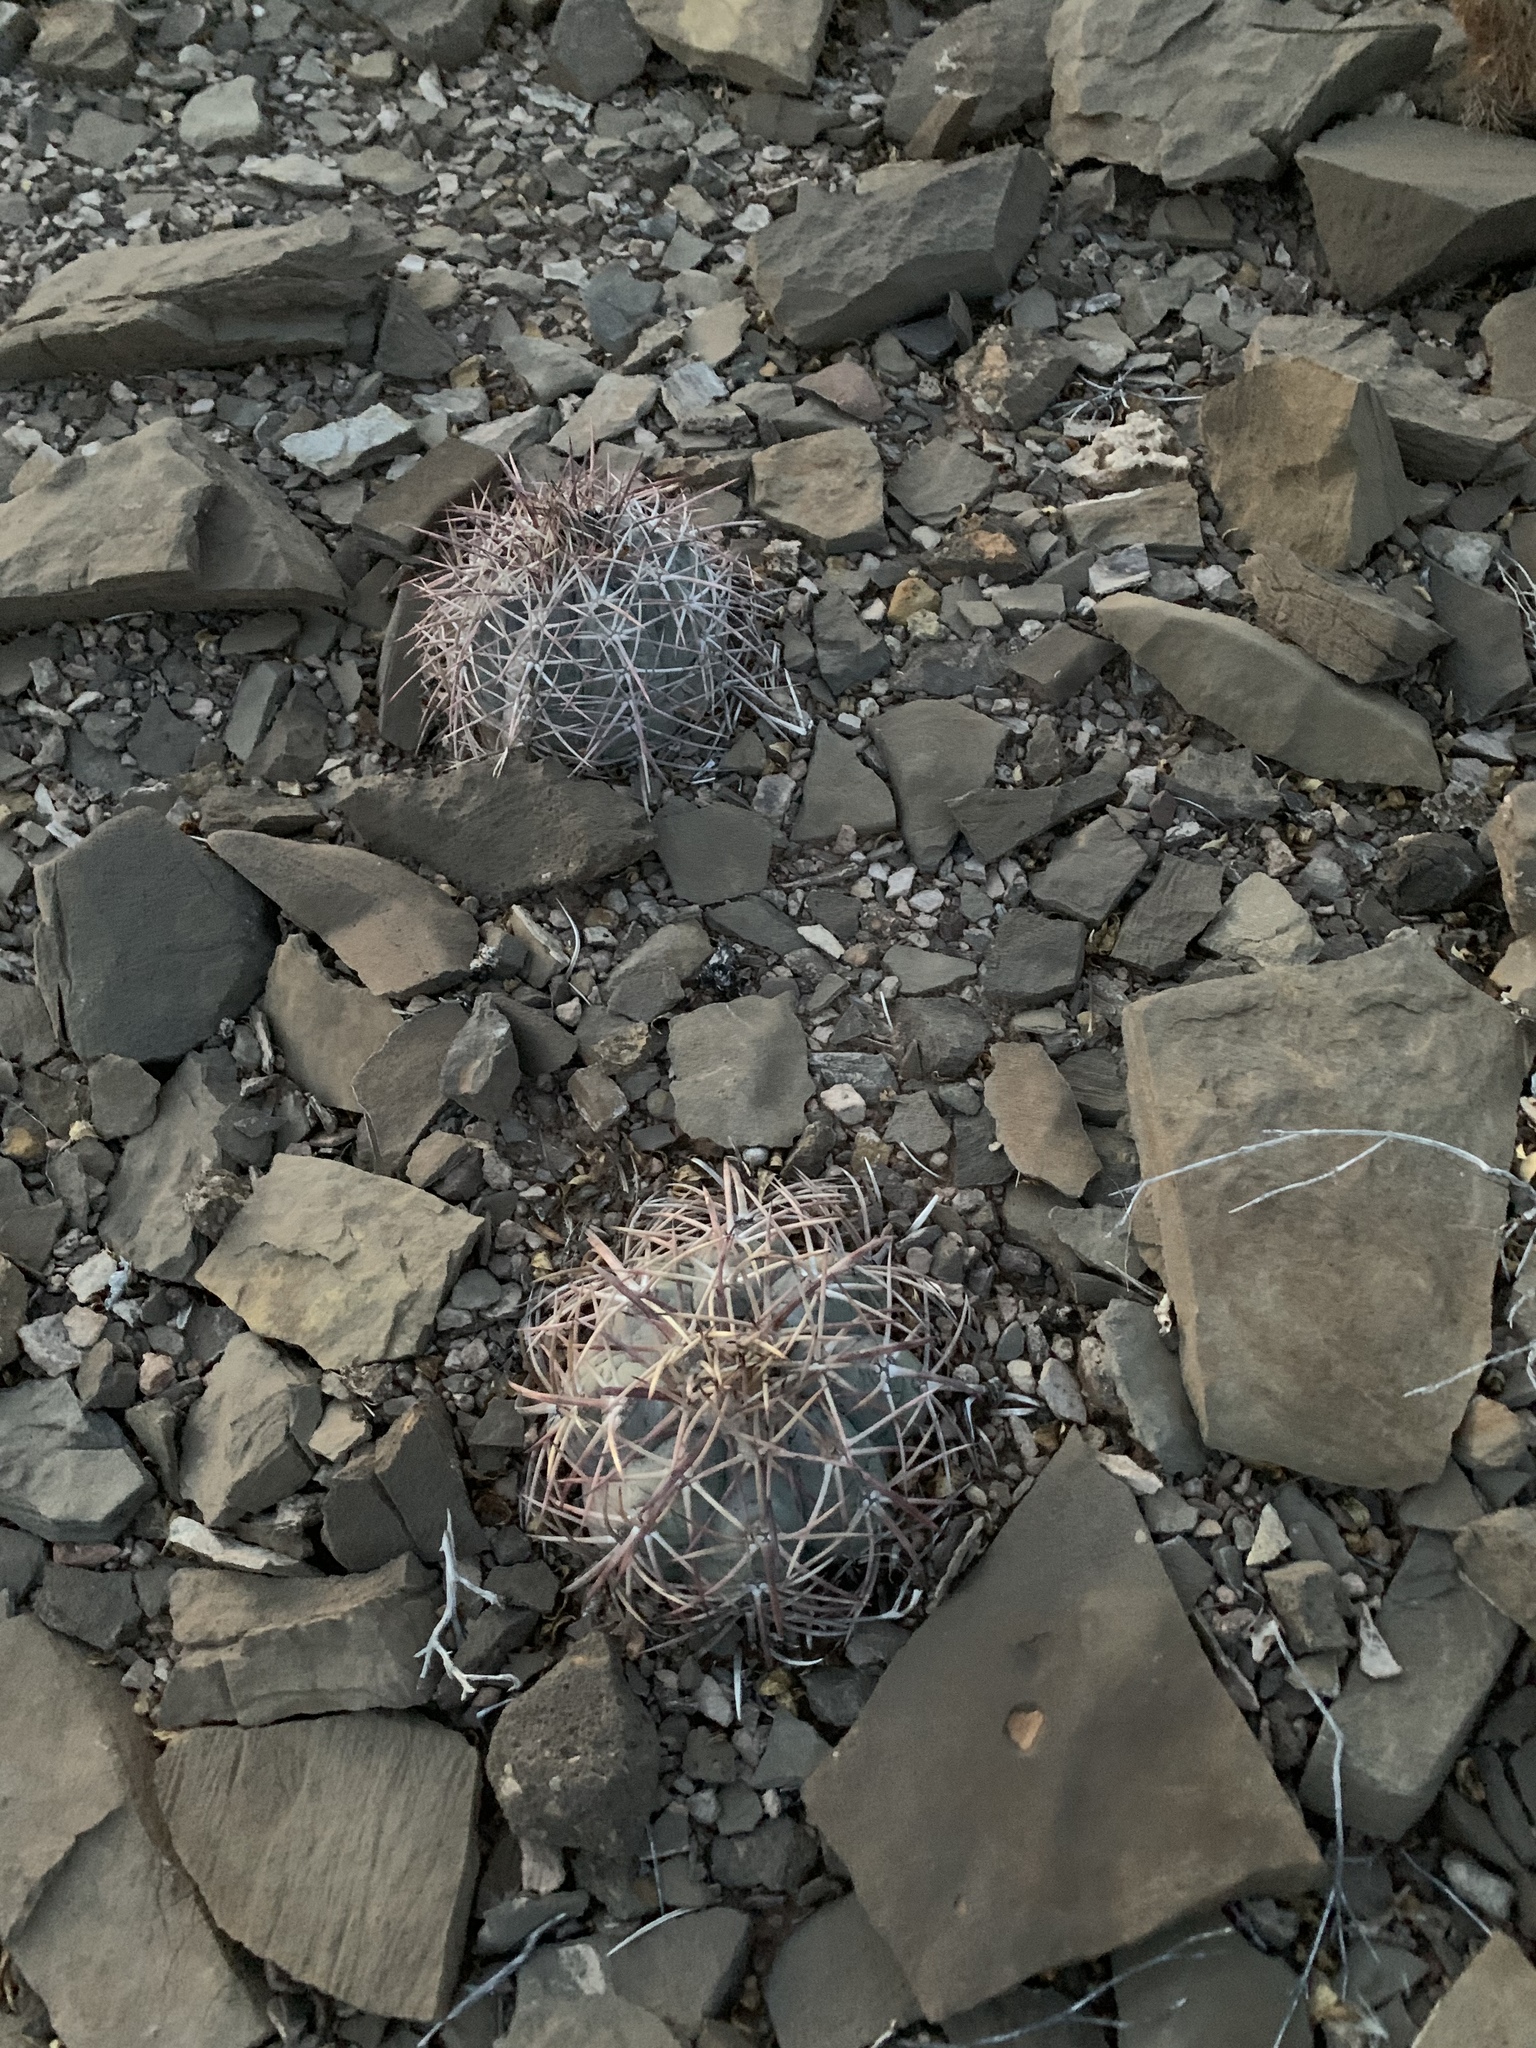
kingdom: Plantae
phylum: Tracheophyta
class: Magnoliopsida
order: Caryophyllales
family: Cactaceae
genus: Echinocactus
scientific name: Echinocactus horizonthalonius
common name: Devilshead
